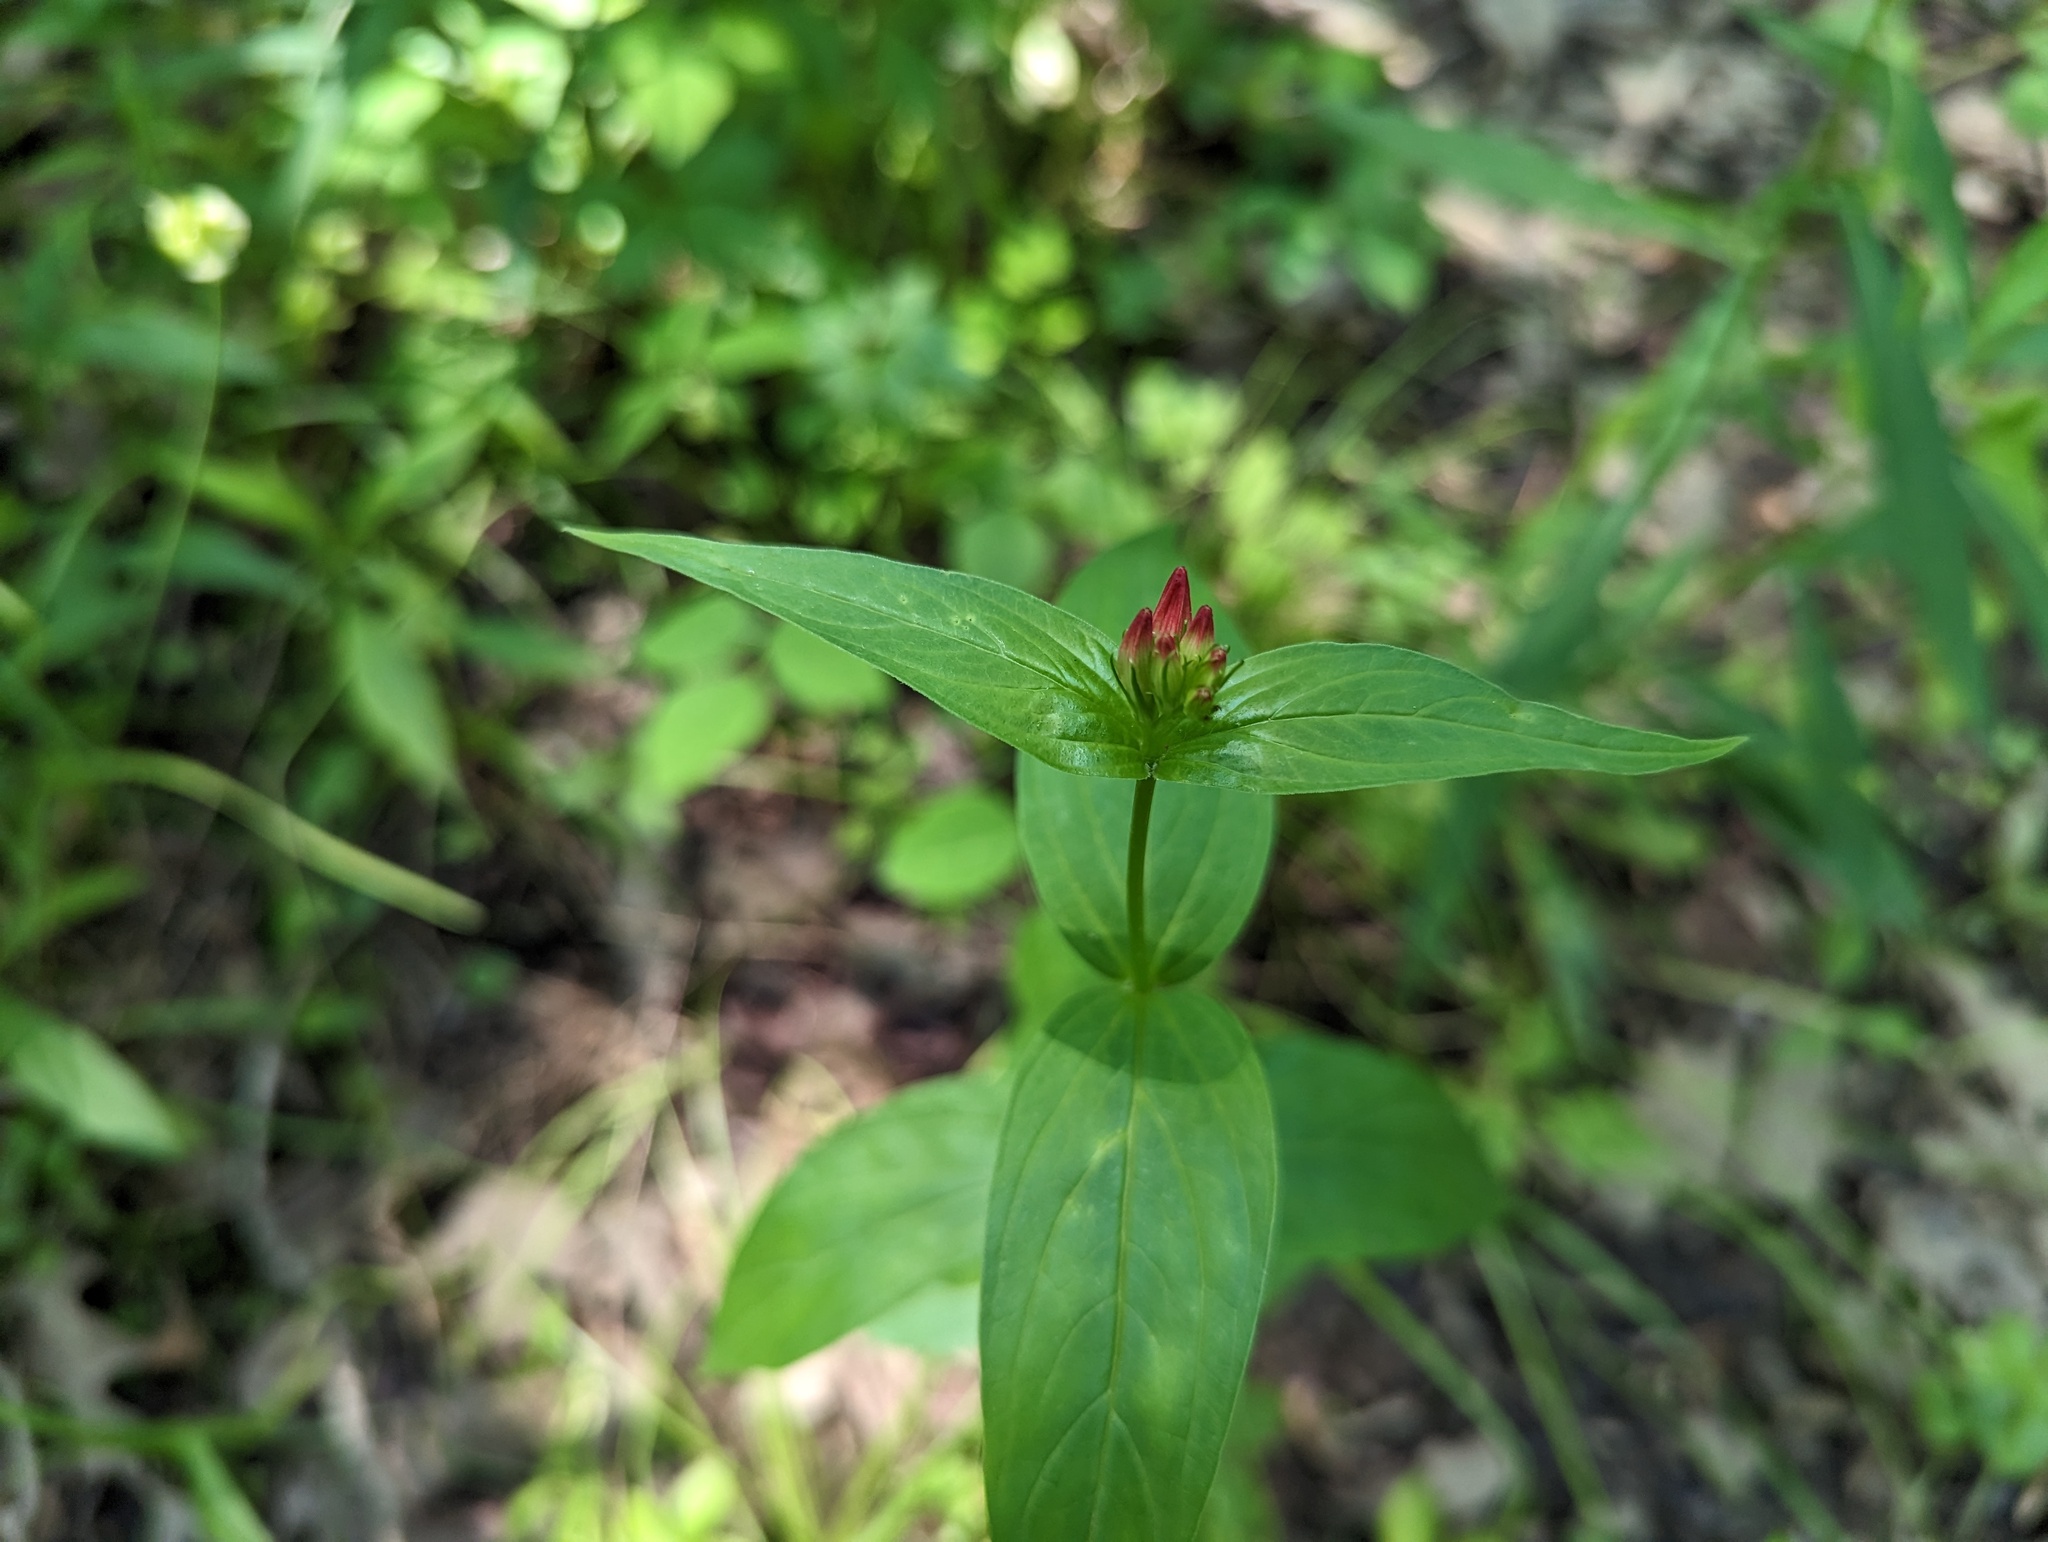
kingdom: Plantae
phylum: Tracheophyta
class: Magnoliopsida
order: Gentianales
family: Loganiaceae
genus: Spigelia
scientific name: Spigelia marilandica
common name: Indian-pink
